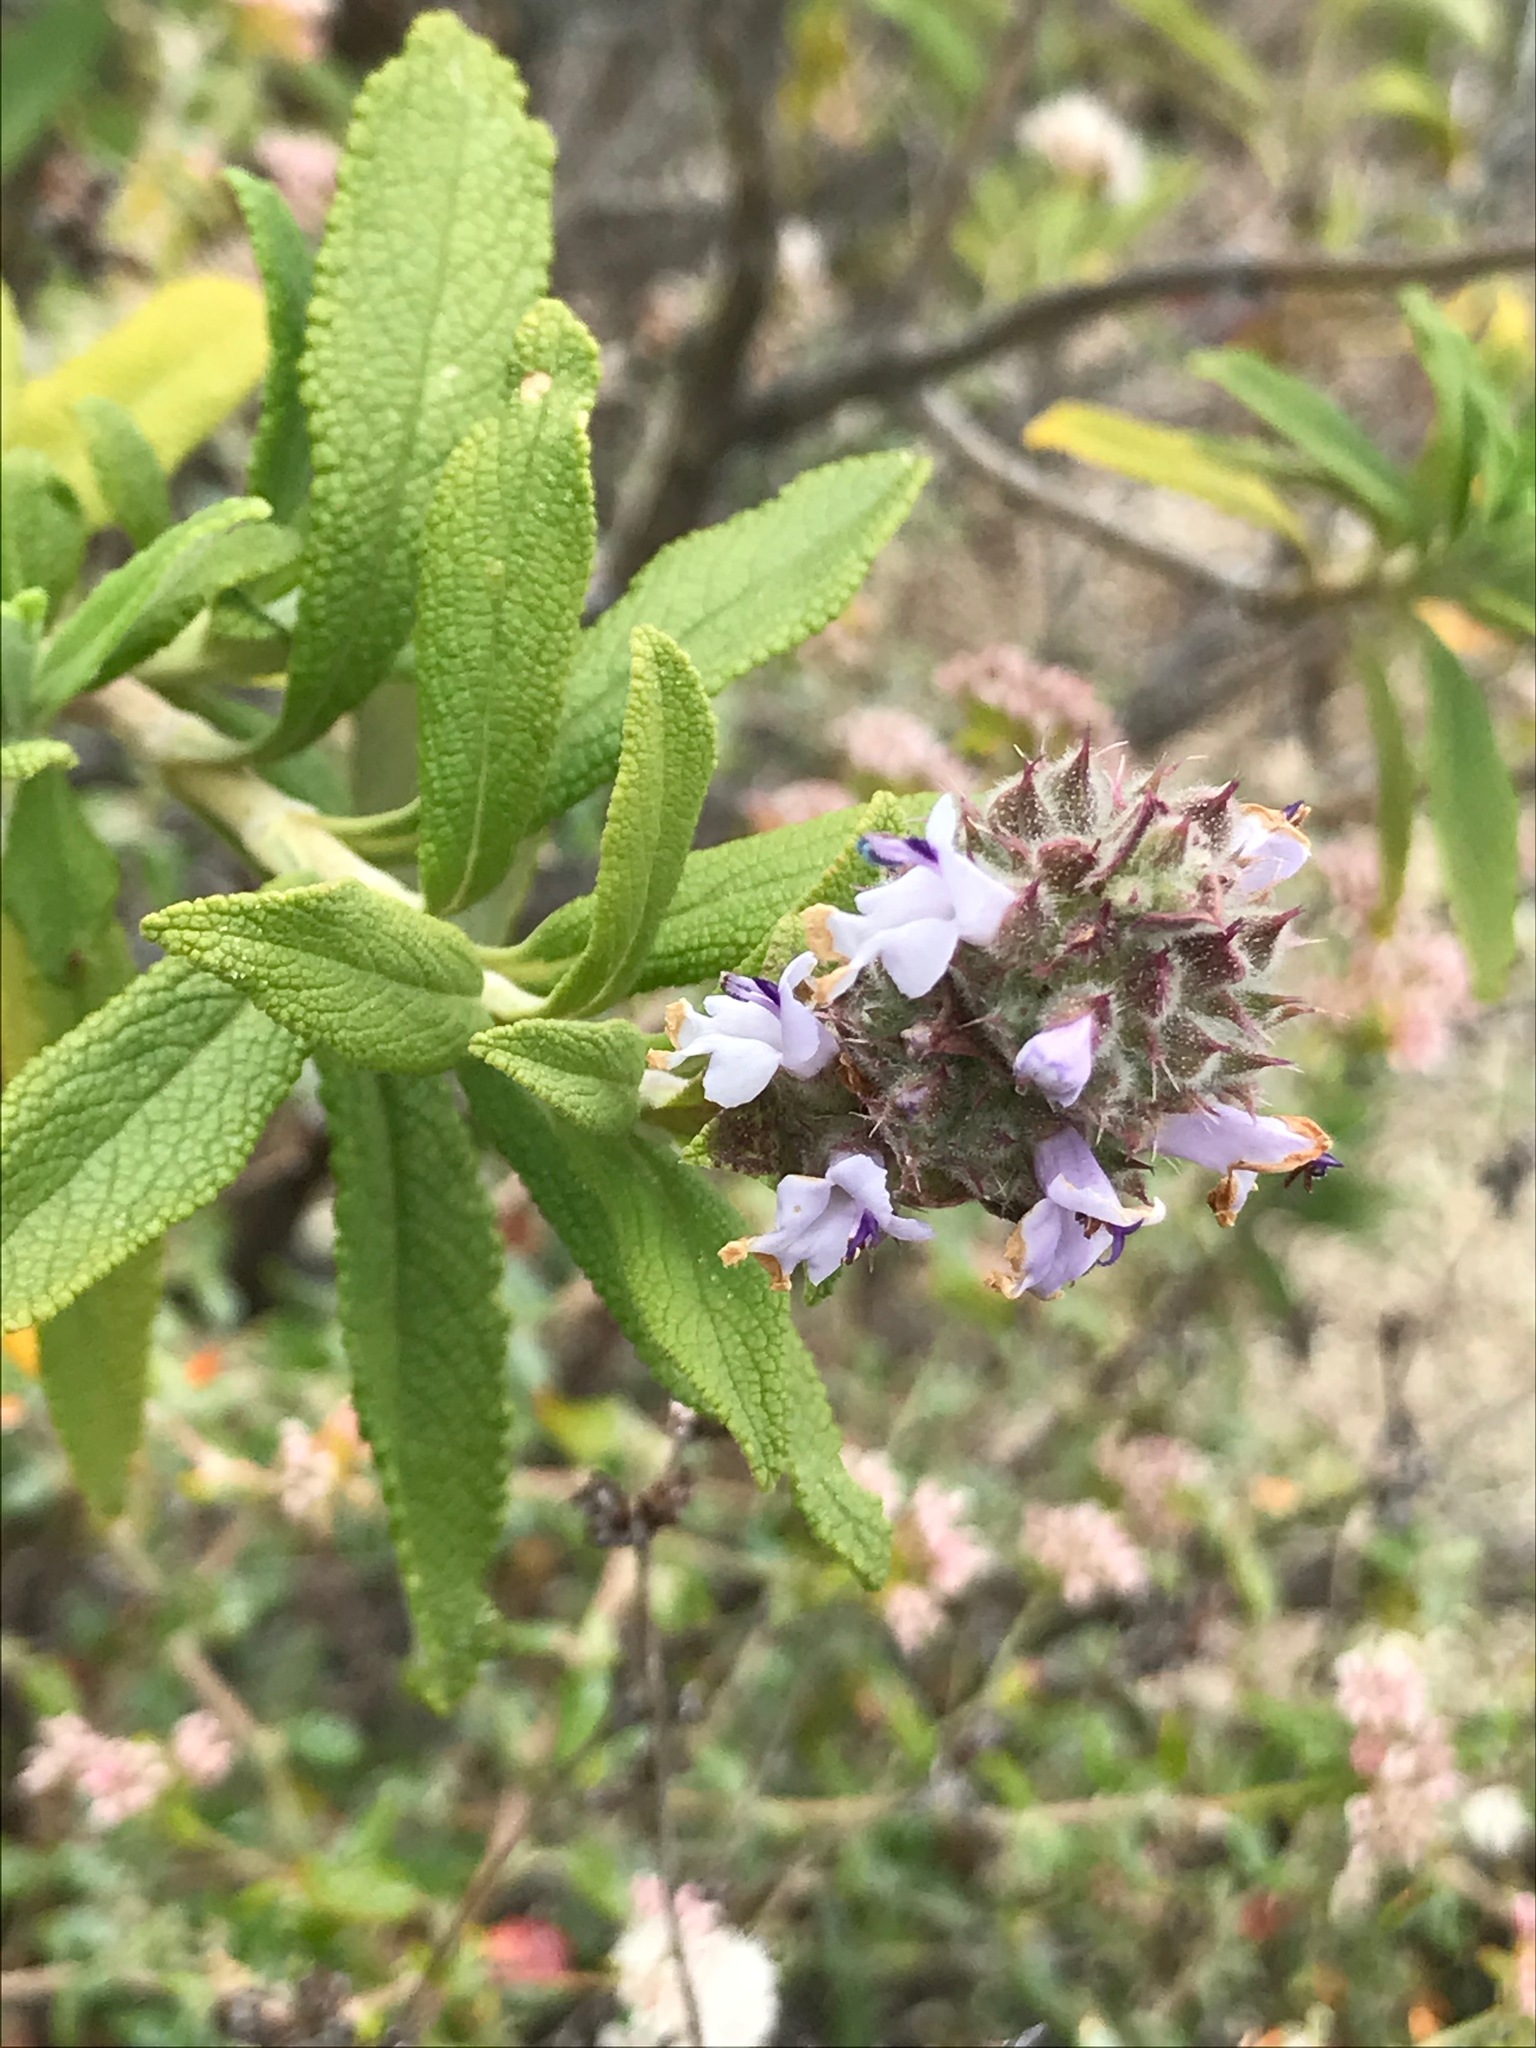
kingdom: Plantae
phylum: Tracheophyta
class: Magnoliopsida
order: Lamiales
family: Lamiaceae
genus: Salvia
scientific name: Salvia mellifera
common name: Black sage
